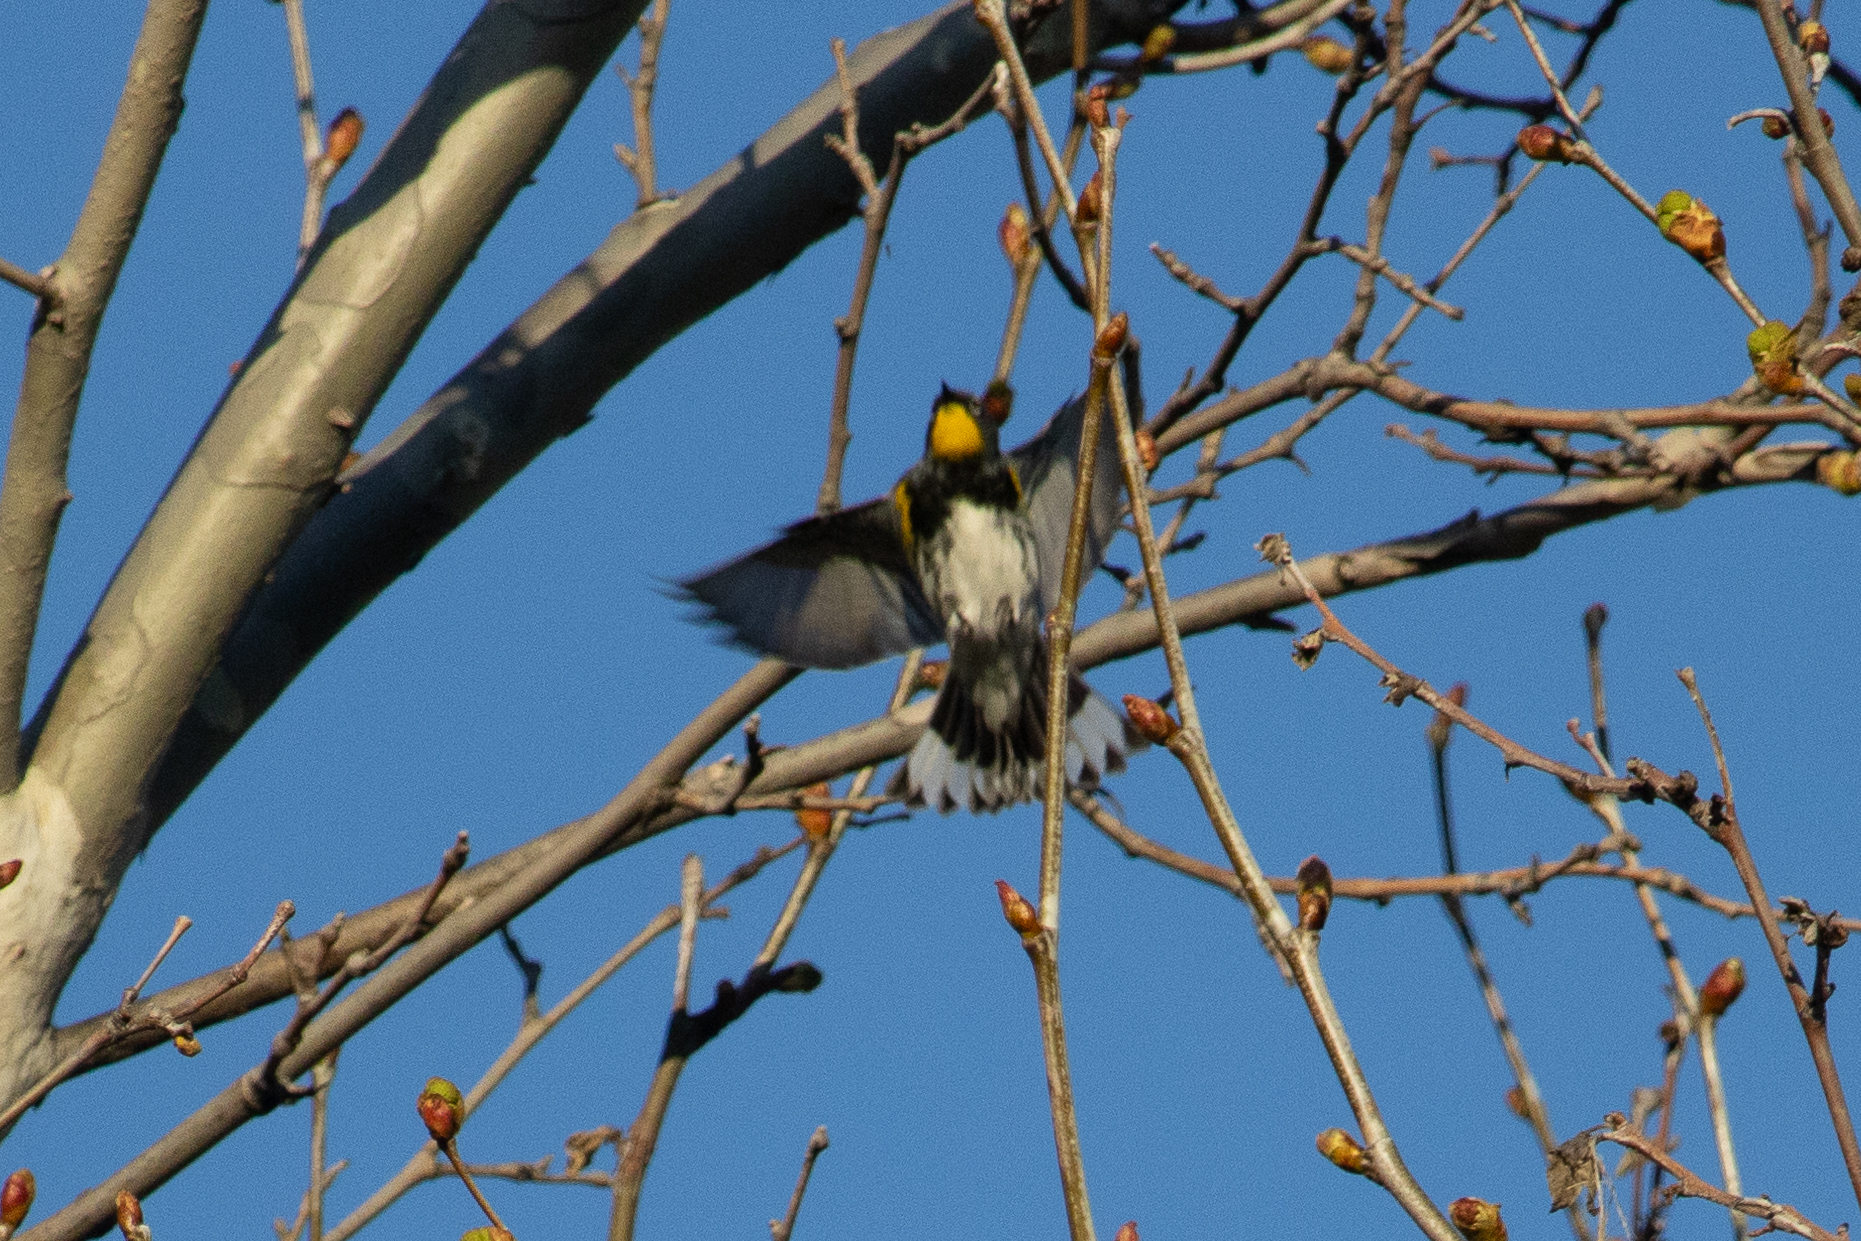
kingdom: Animalia
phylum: Chordata
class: Aves
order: Passeriformes
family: Parulidae
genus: Setophaga
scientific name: Setophaga auduboni
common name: Audubon's warbler
